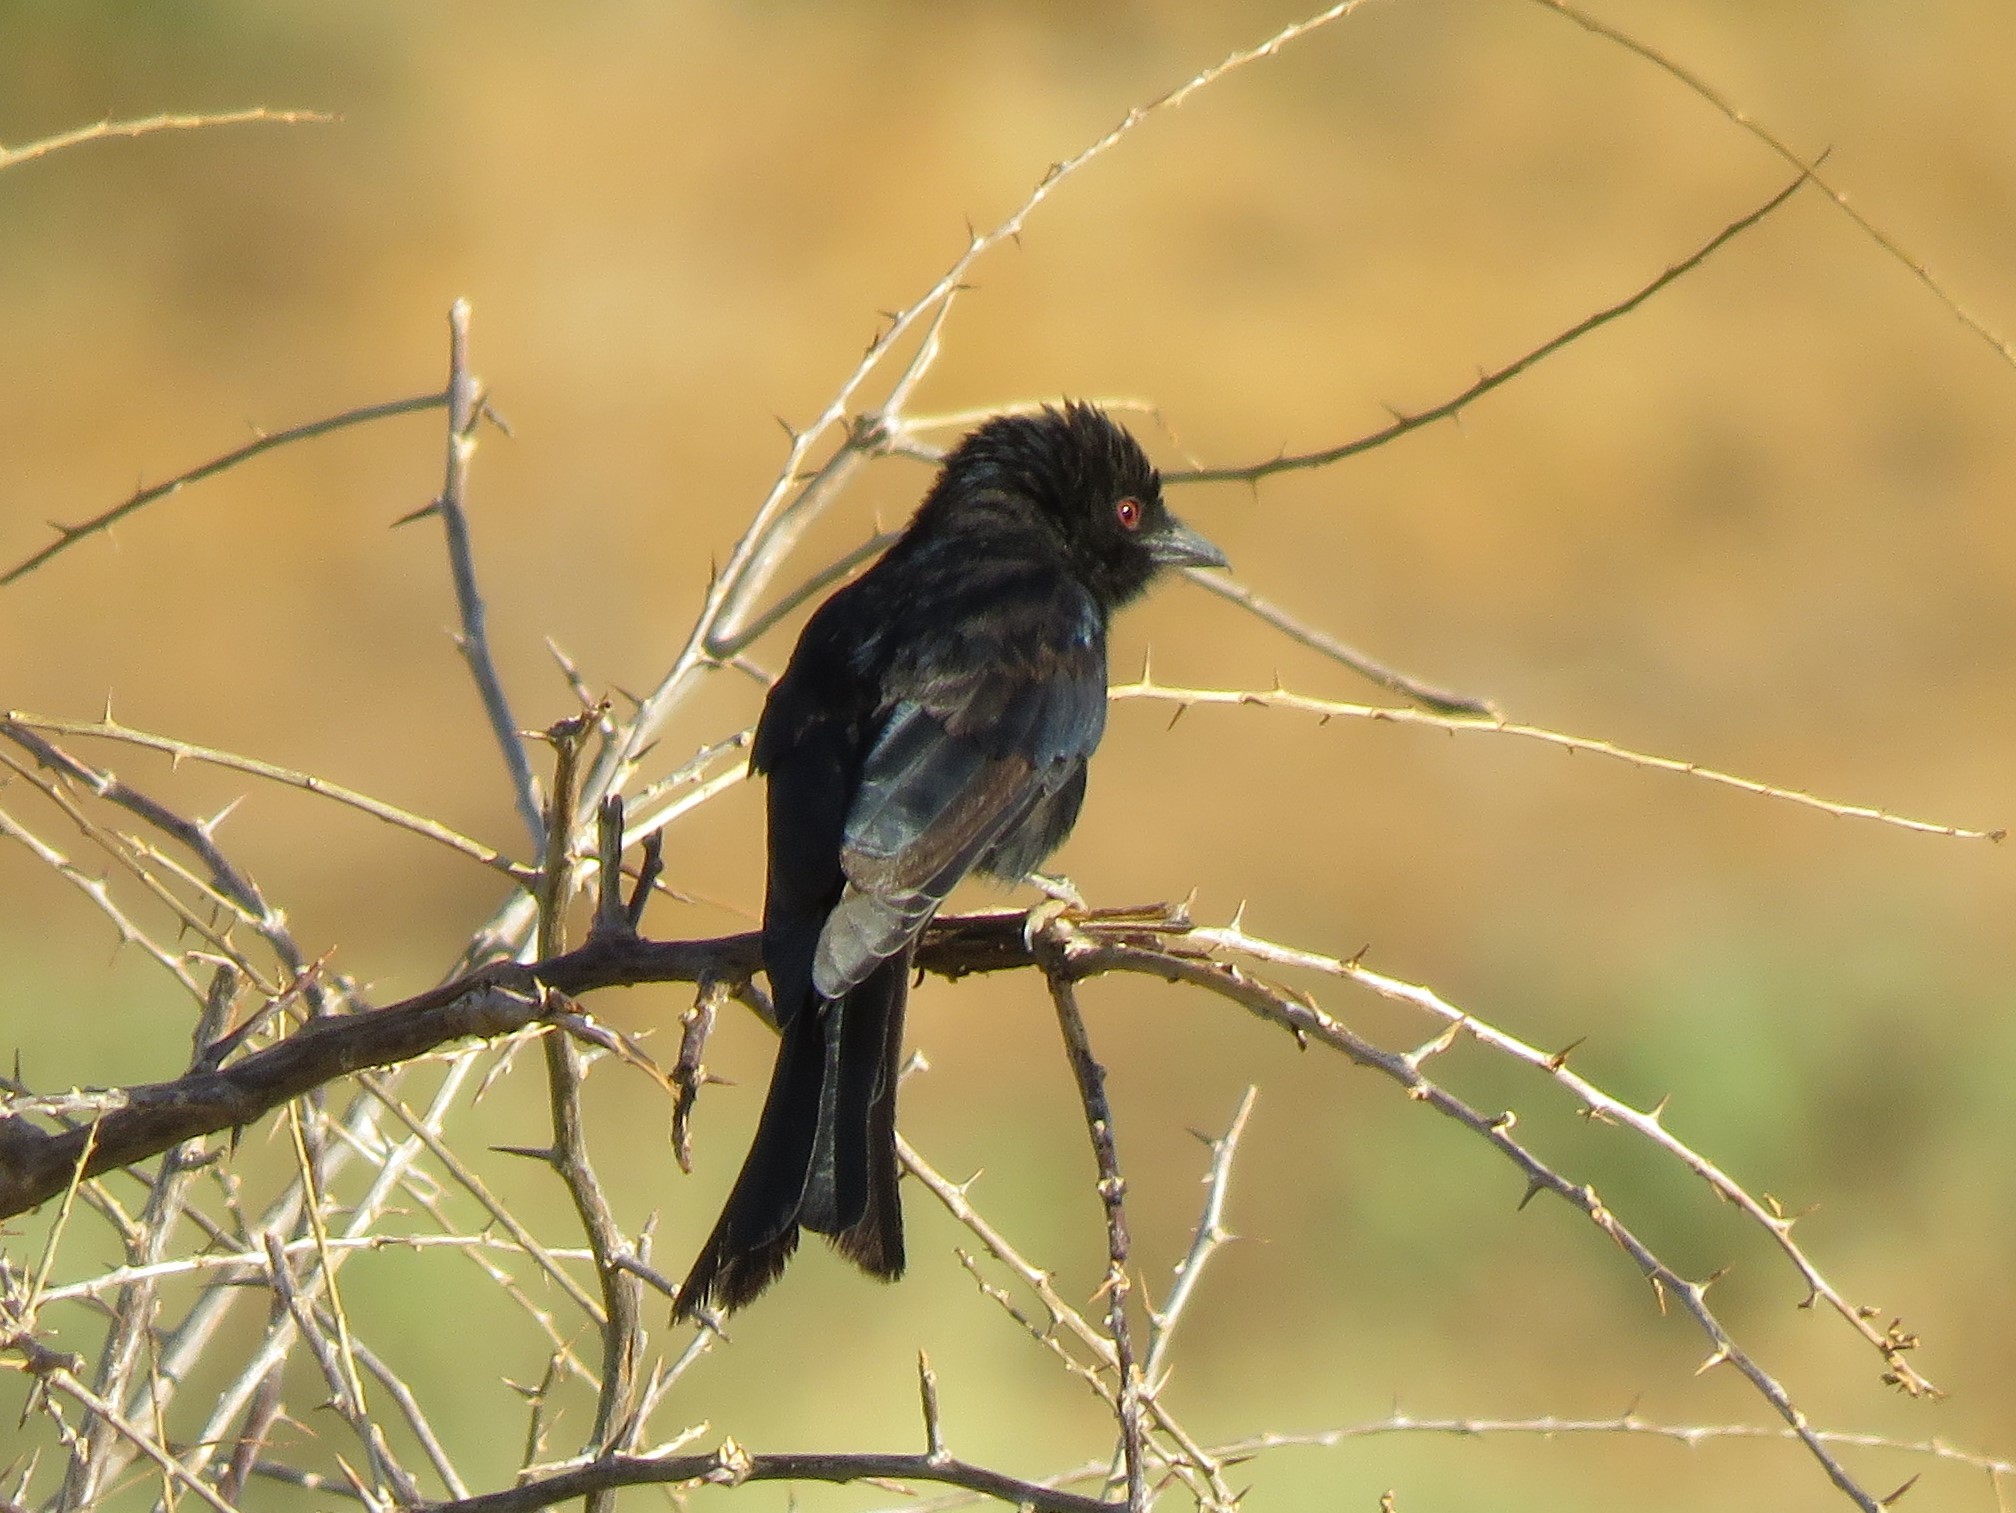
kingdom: Animalia
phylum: Chordata
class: Aves
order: Passeriformes
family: Dicruridae
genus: Dicrurus
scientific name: Dicrurus adsimilis
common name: Fork-tailed drongo
